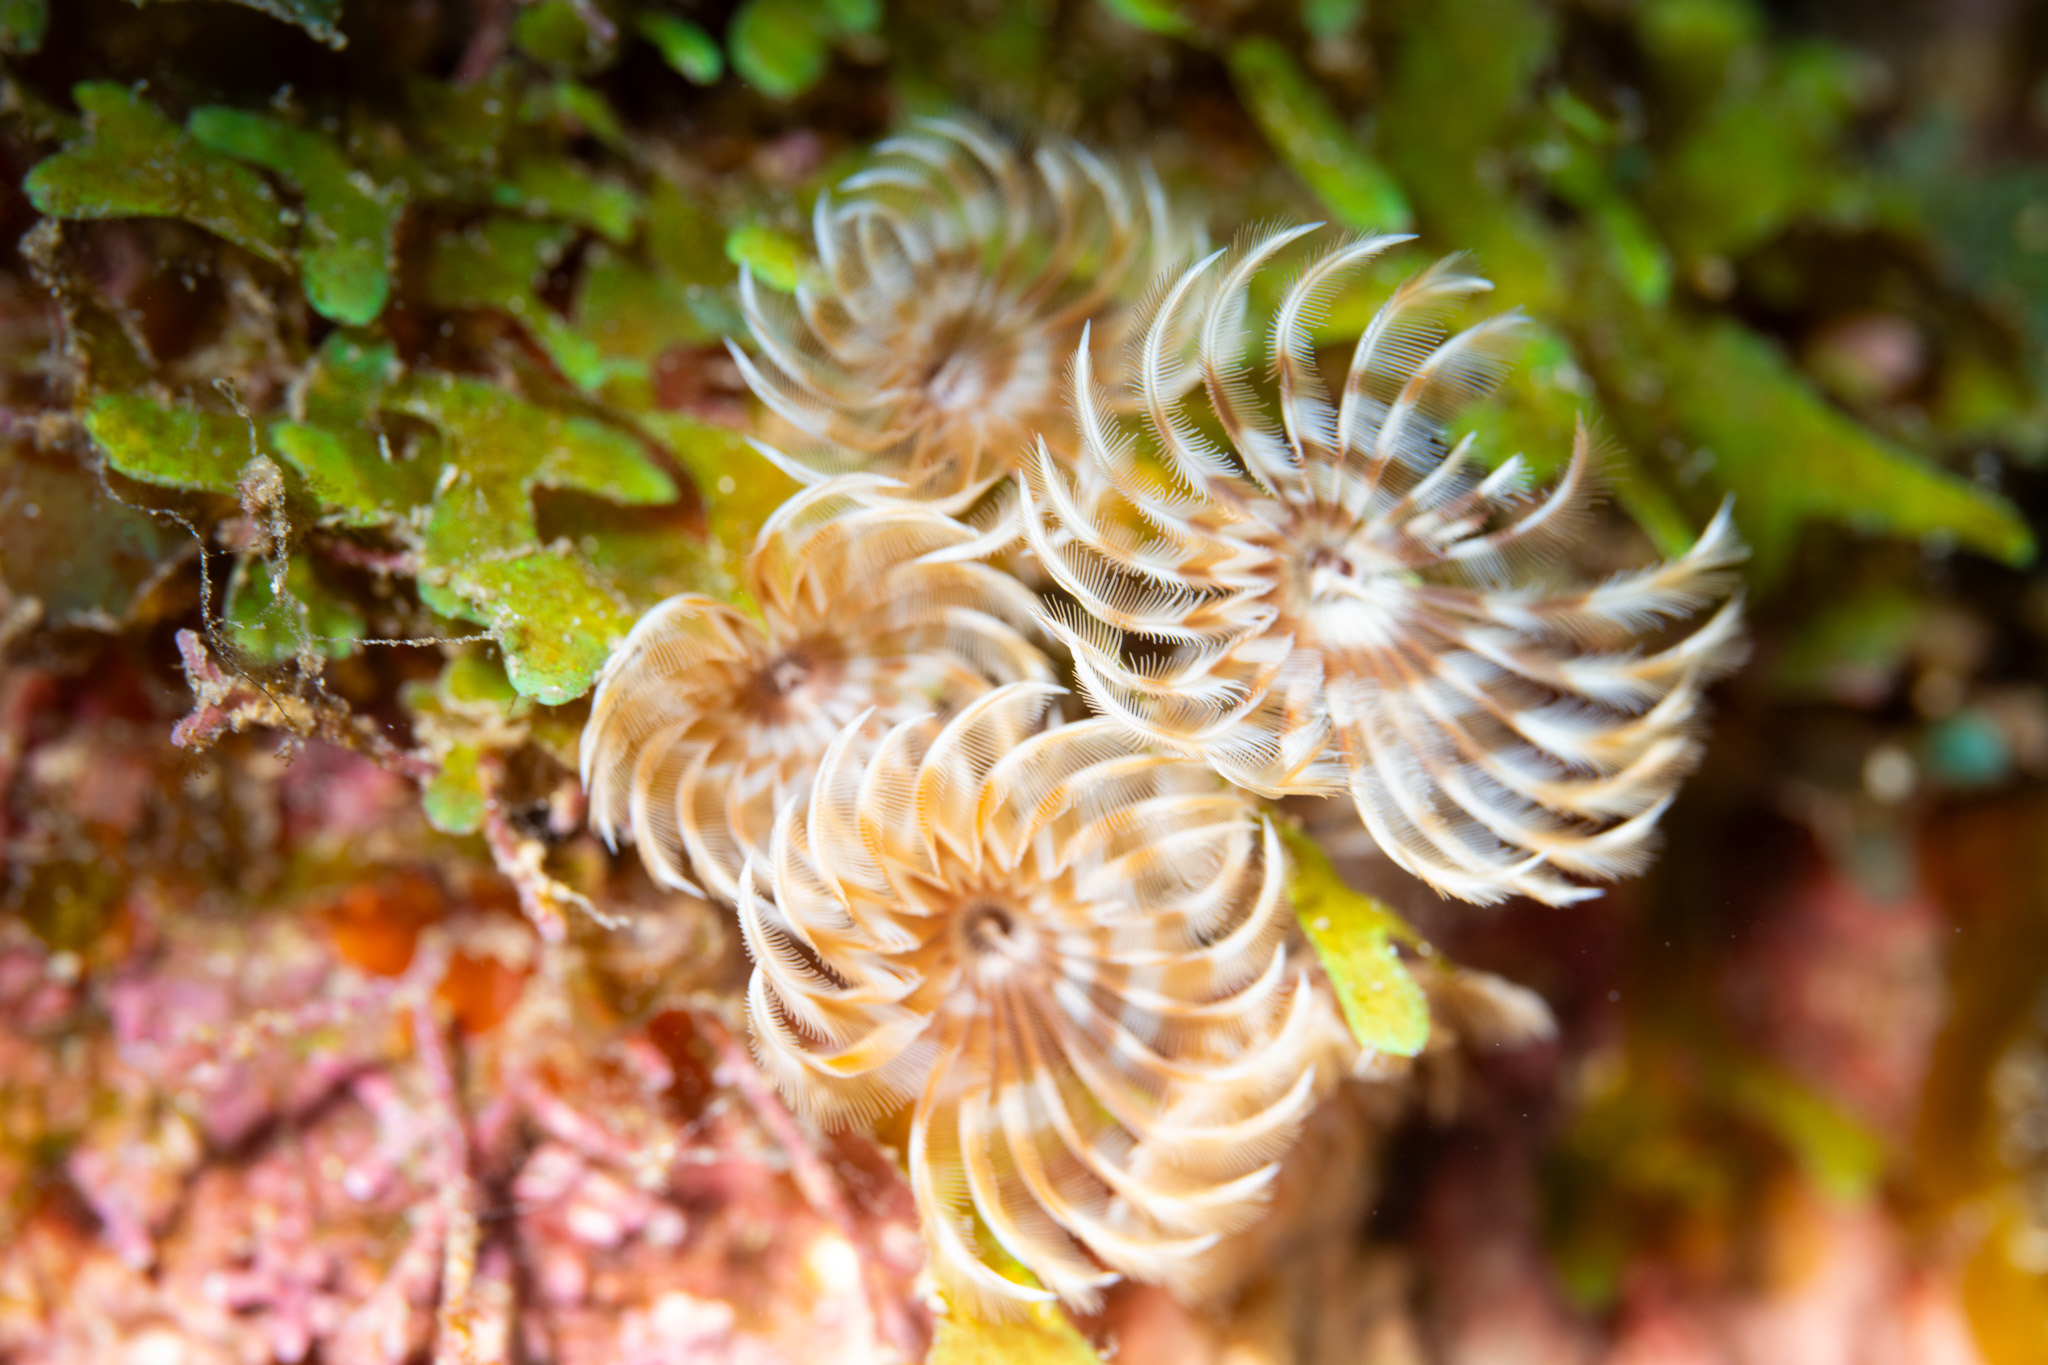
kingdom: Animalia
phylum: Annelida
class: Polychaeta
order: Sabellida
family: Sabellidae
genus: Bispira
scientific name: Bispira brunnea
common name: Social feather duster
